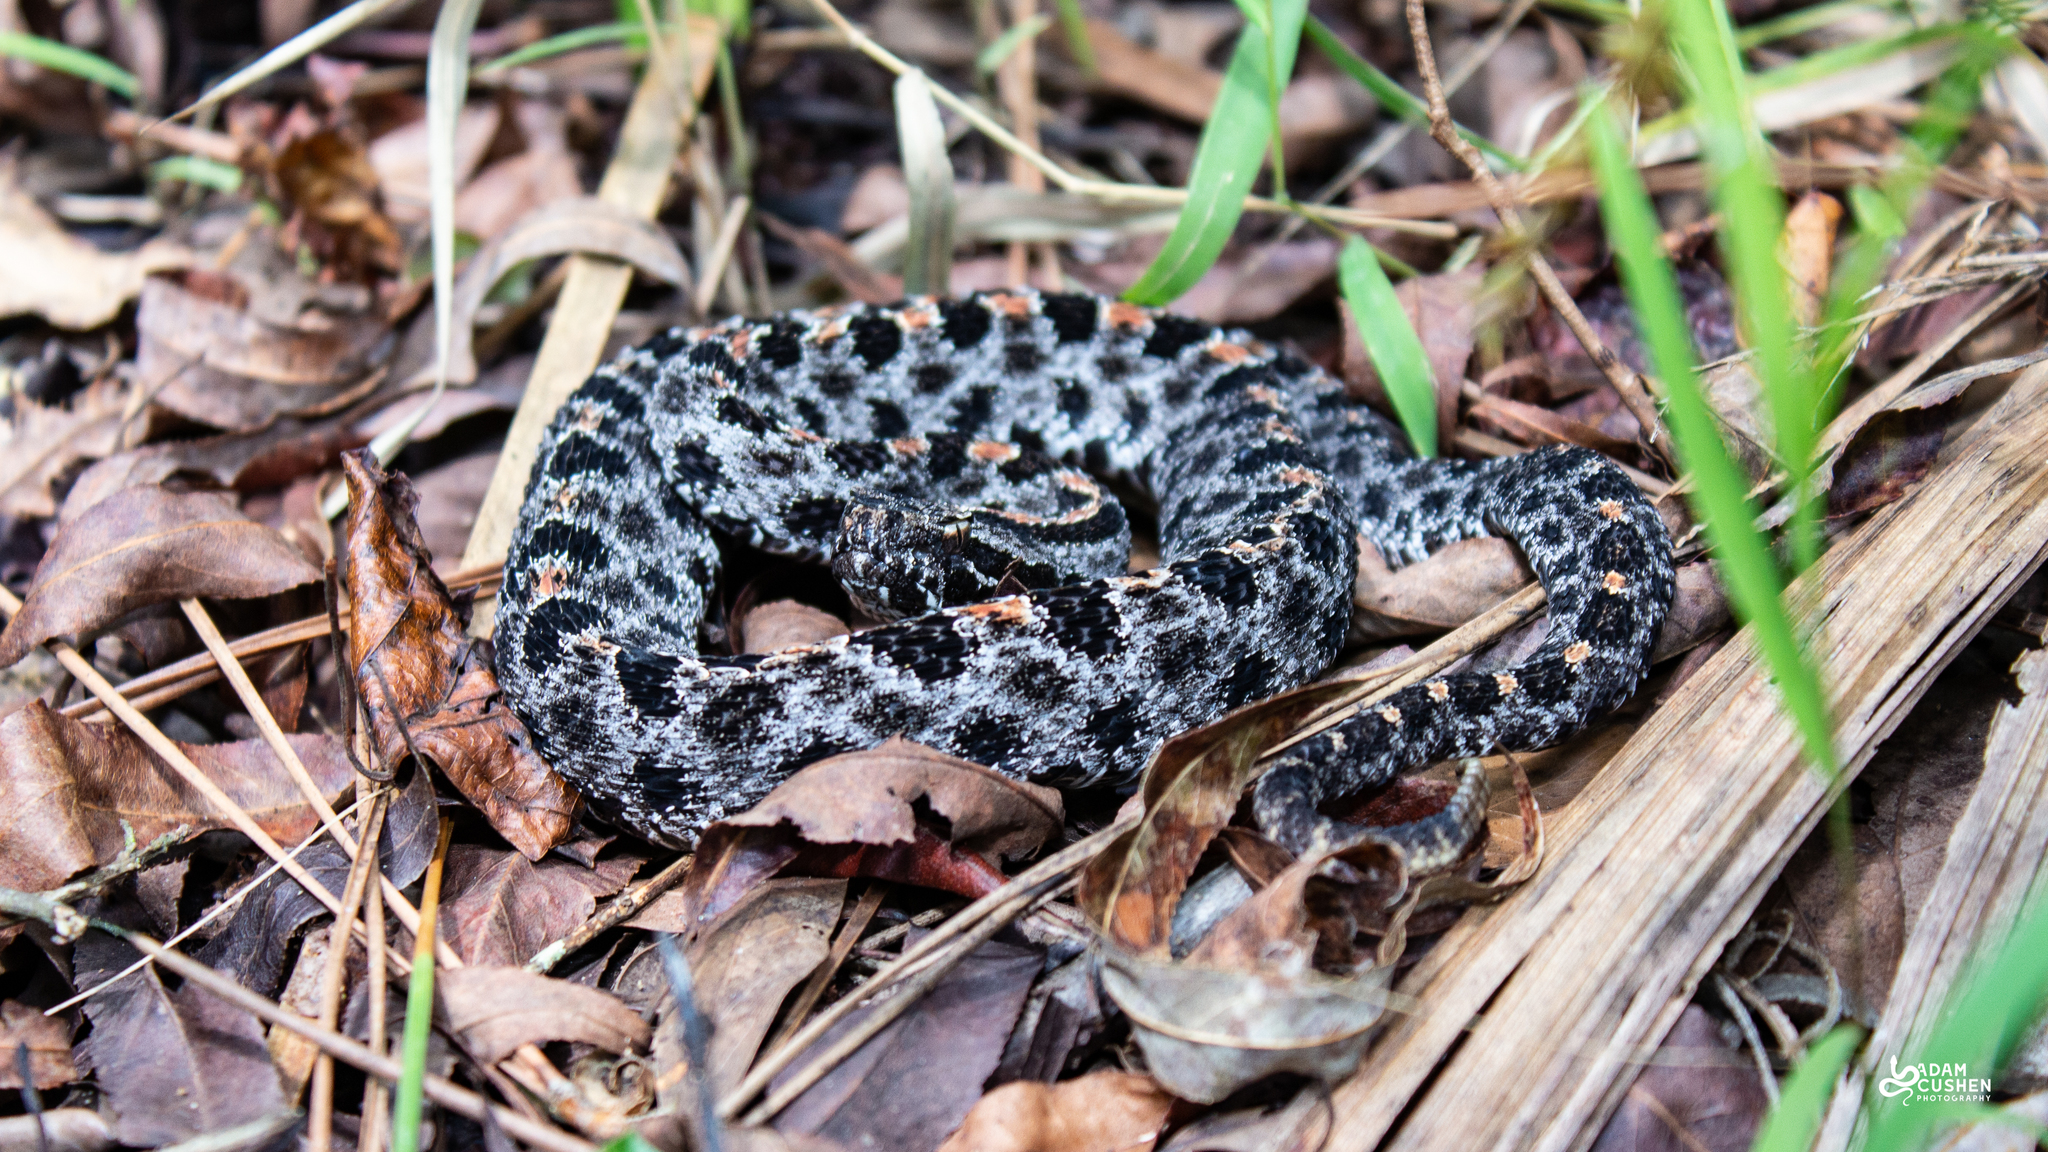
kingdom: Animalia
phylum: Chordata
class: Squamata
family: Viperidae
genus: Sistrurus
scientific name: Sistrurus miliarius
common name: Pygmy rattlesnake
